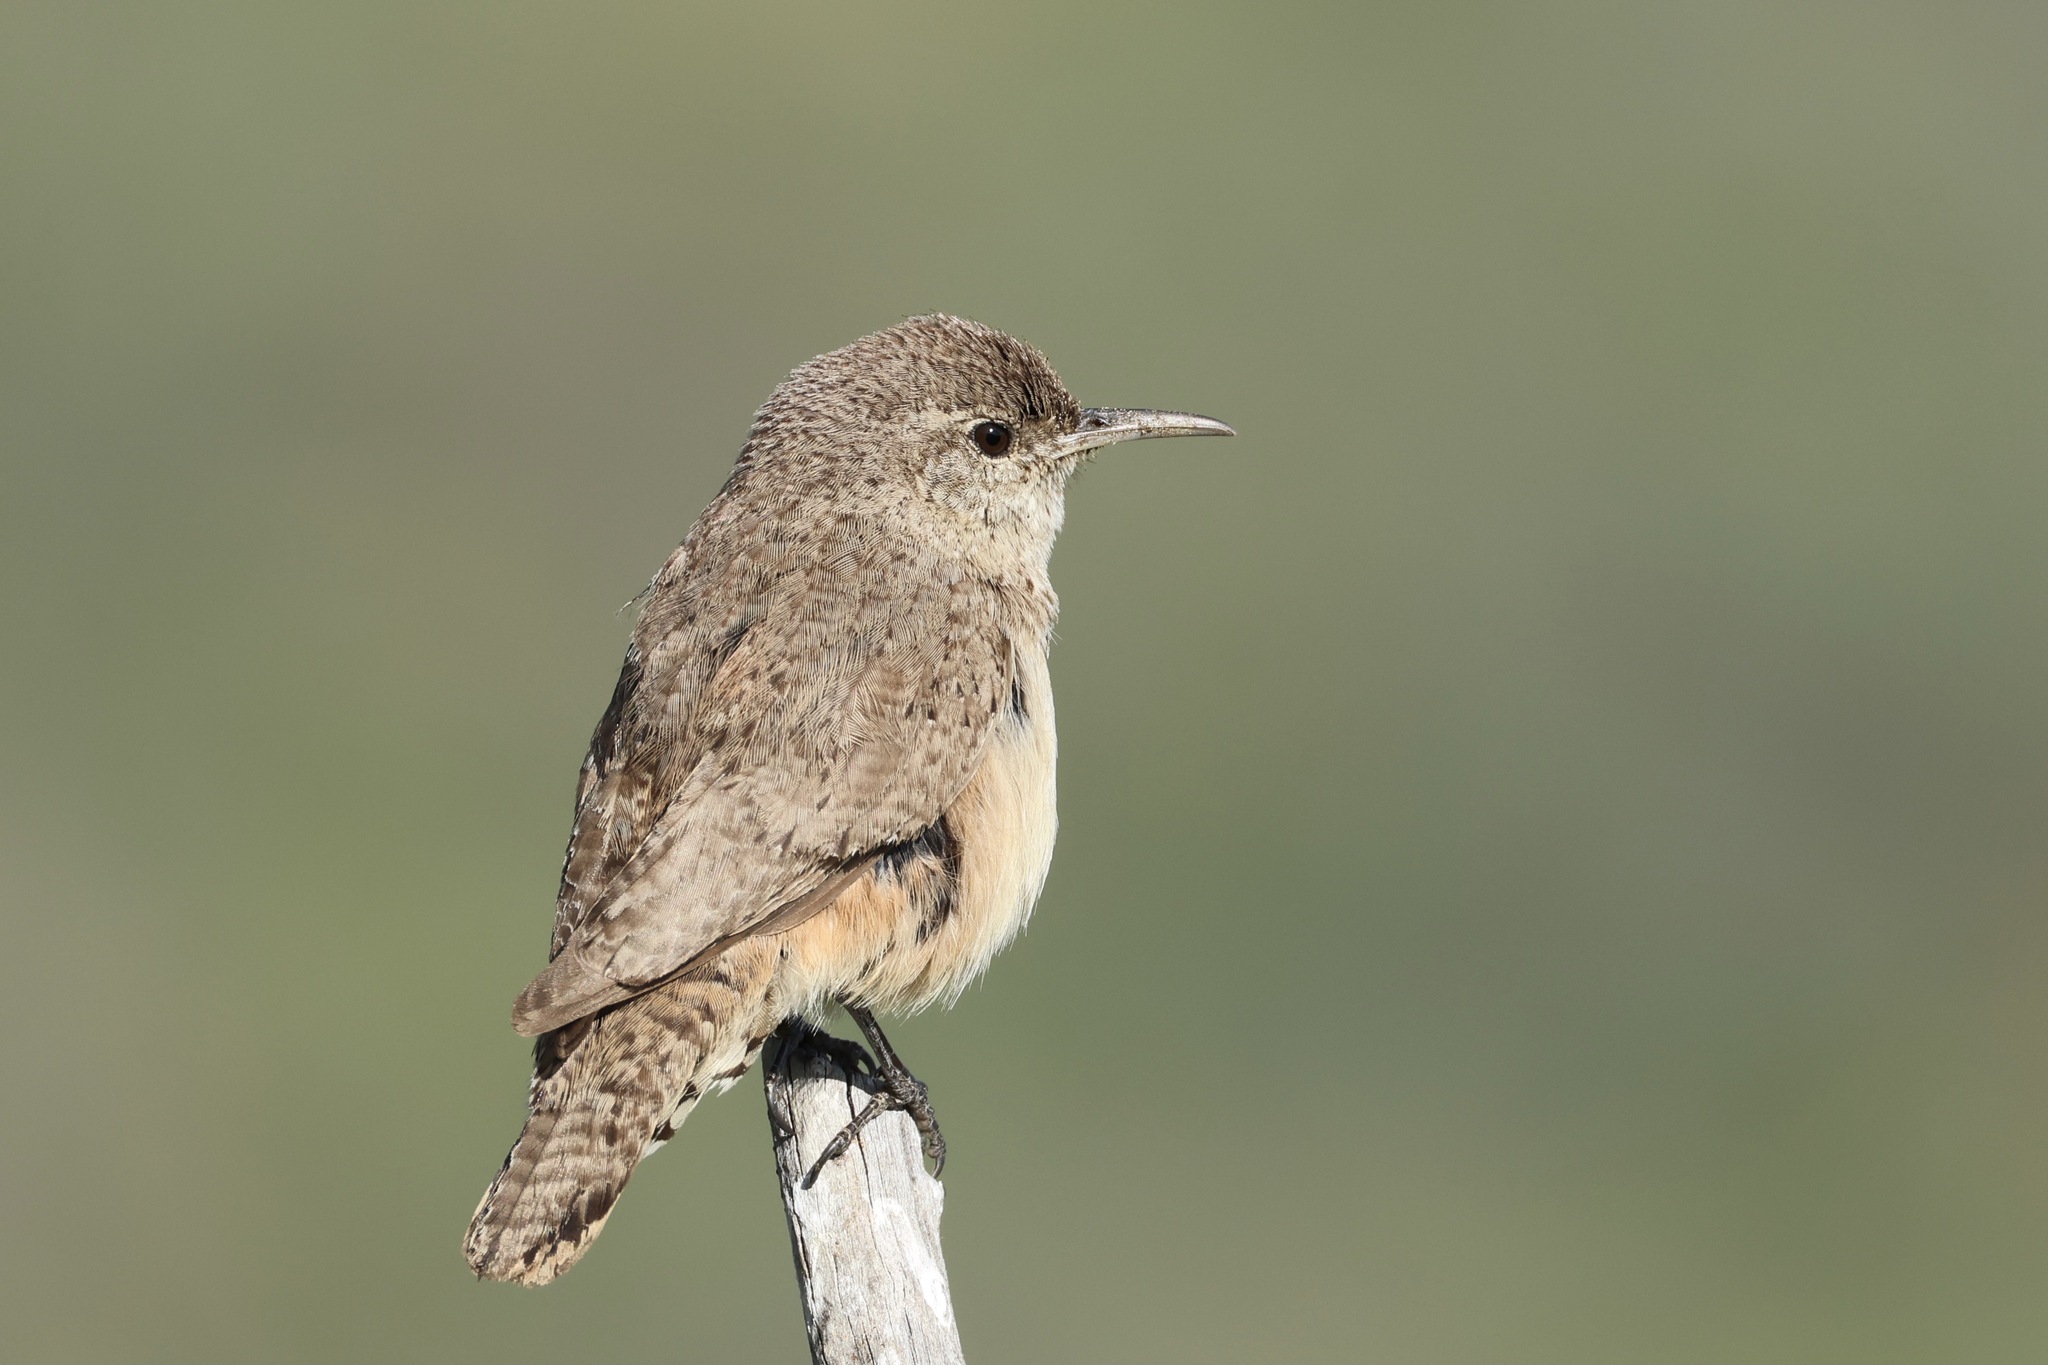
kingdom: Animalia
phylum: Chordata
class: Aves
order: Passeriformes
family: Troglodytidae
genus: Salpinctes
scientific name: Salpinctes obsoletus
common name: Rock wren
